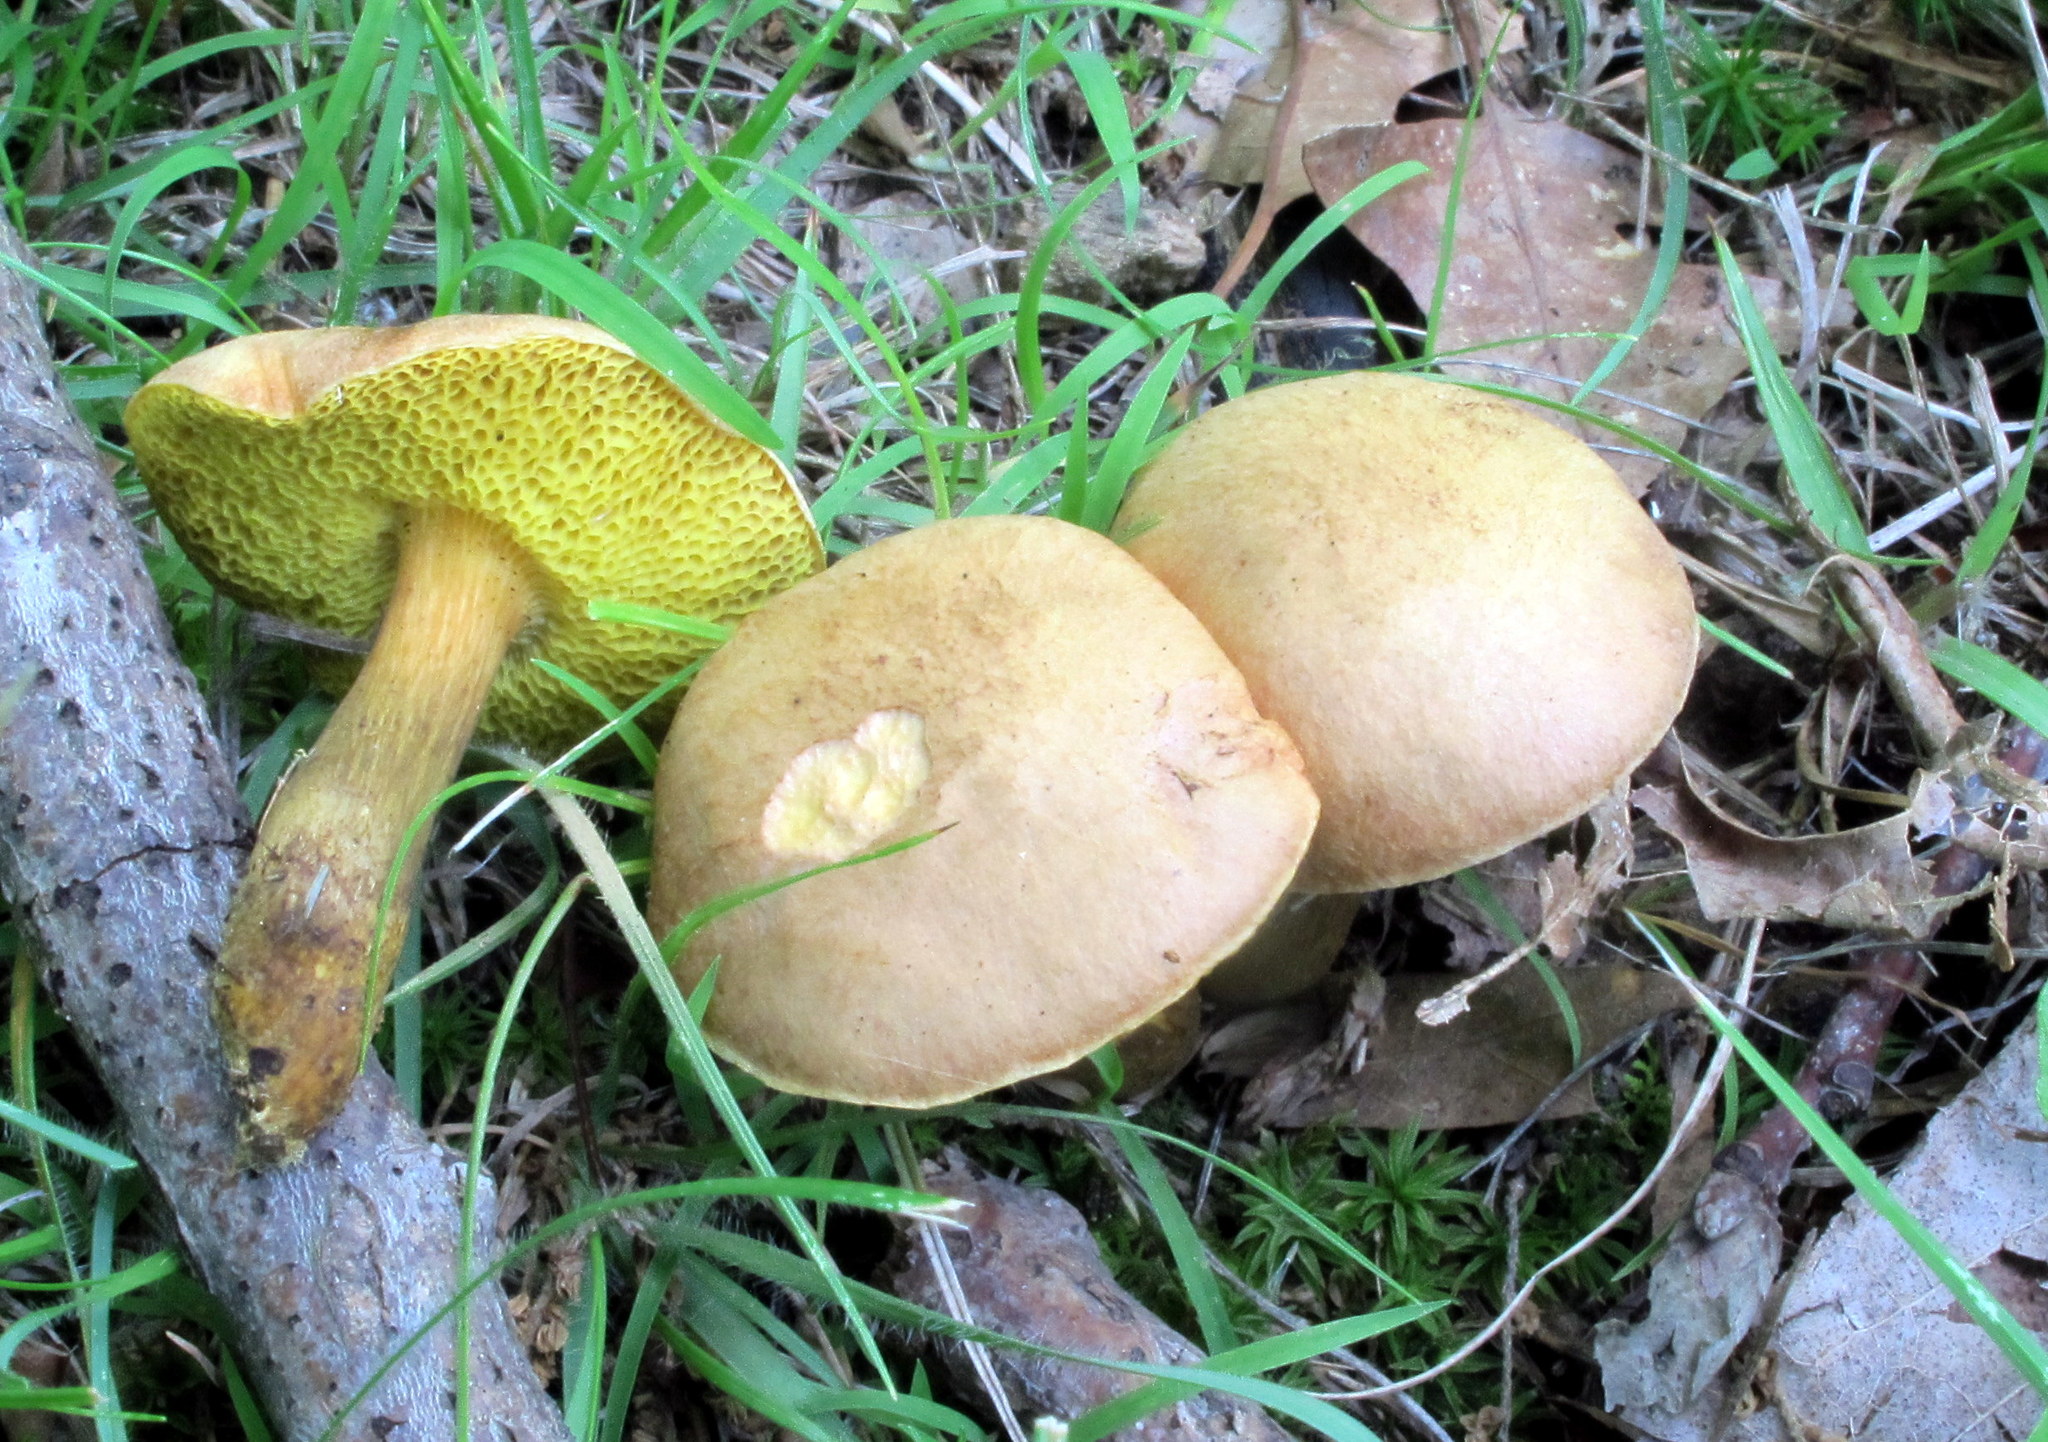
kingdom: Fungi
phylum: Basidiomycota
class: Agaricomycetes
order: Boletales
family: Boletaceae
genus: Aureoboletus
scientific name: Aureoboletus innixus
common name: Clustered brown bolete
